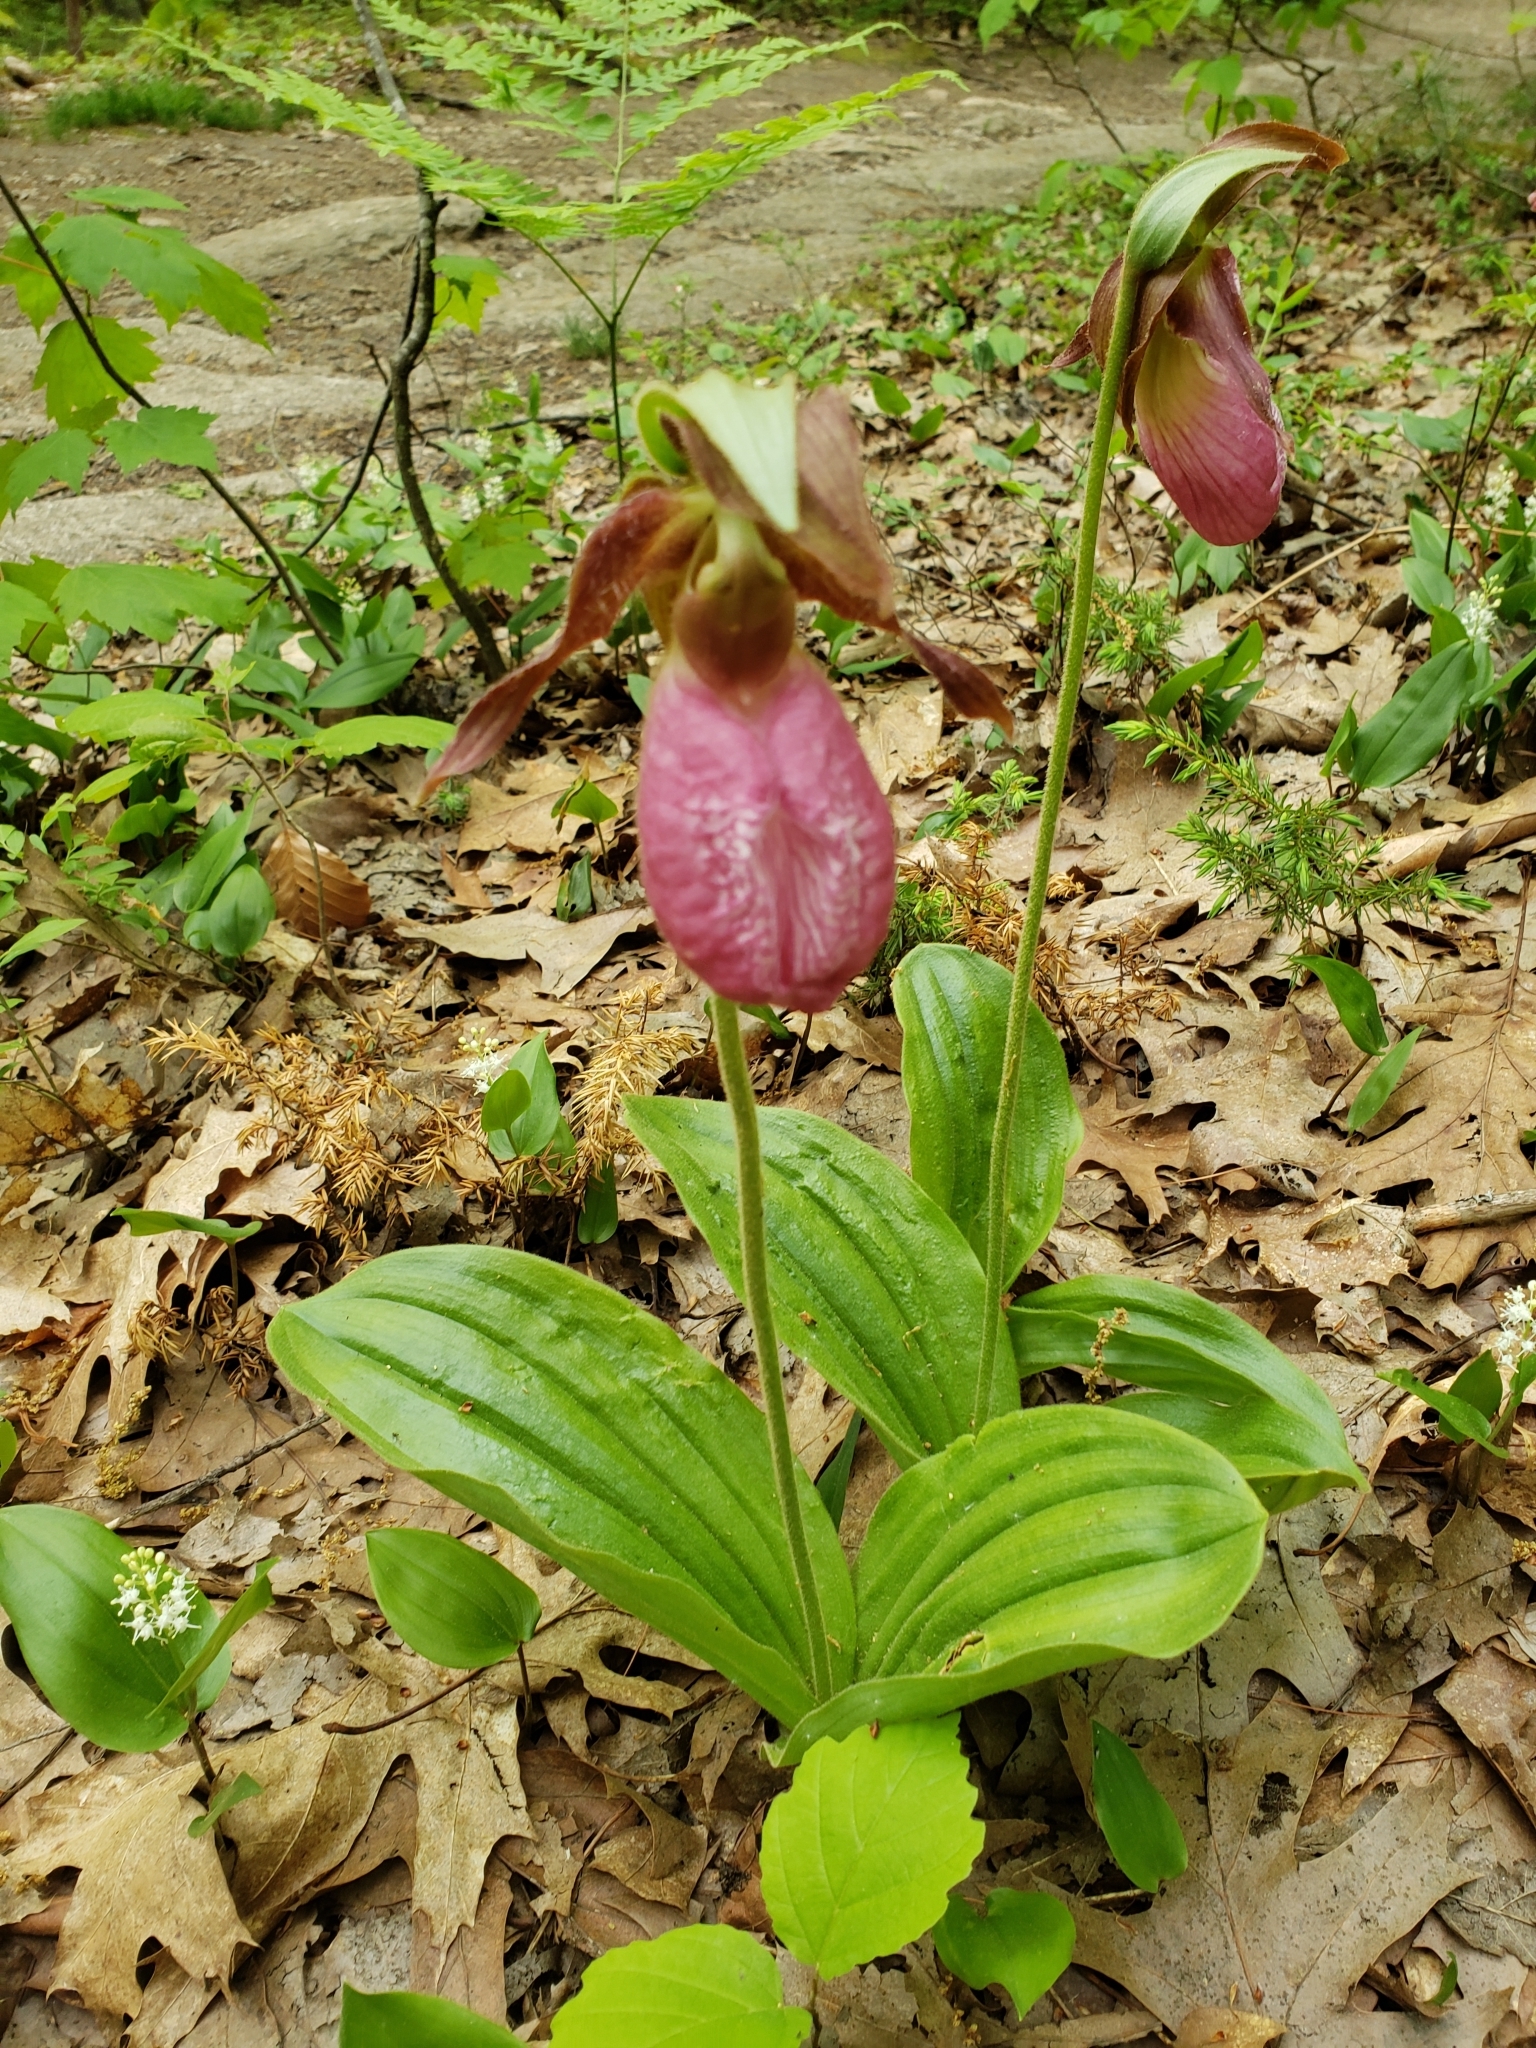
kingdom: Plantae
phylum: Tracheophyta
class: Liliopsida
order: Asparagales
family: Orchidaceae
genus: Cypripedium
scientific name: Cypripedium acaule
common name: Pink lady's-slipper
